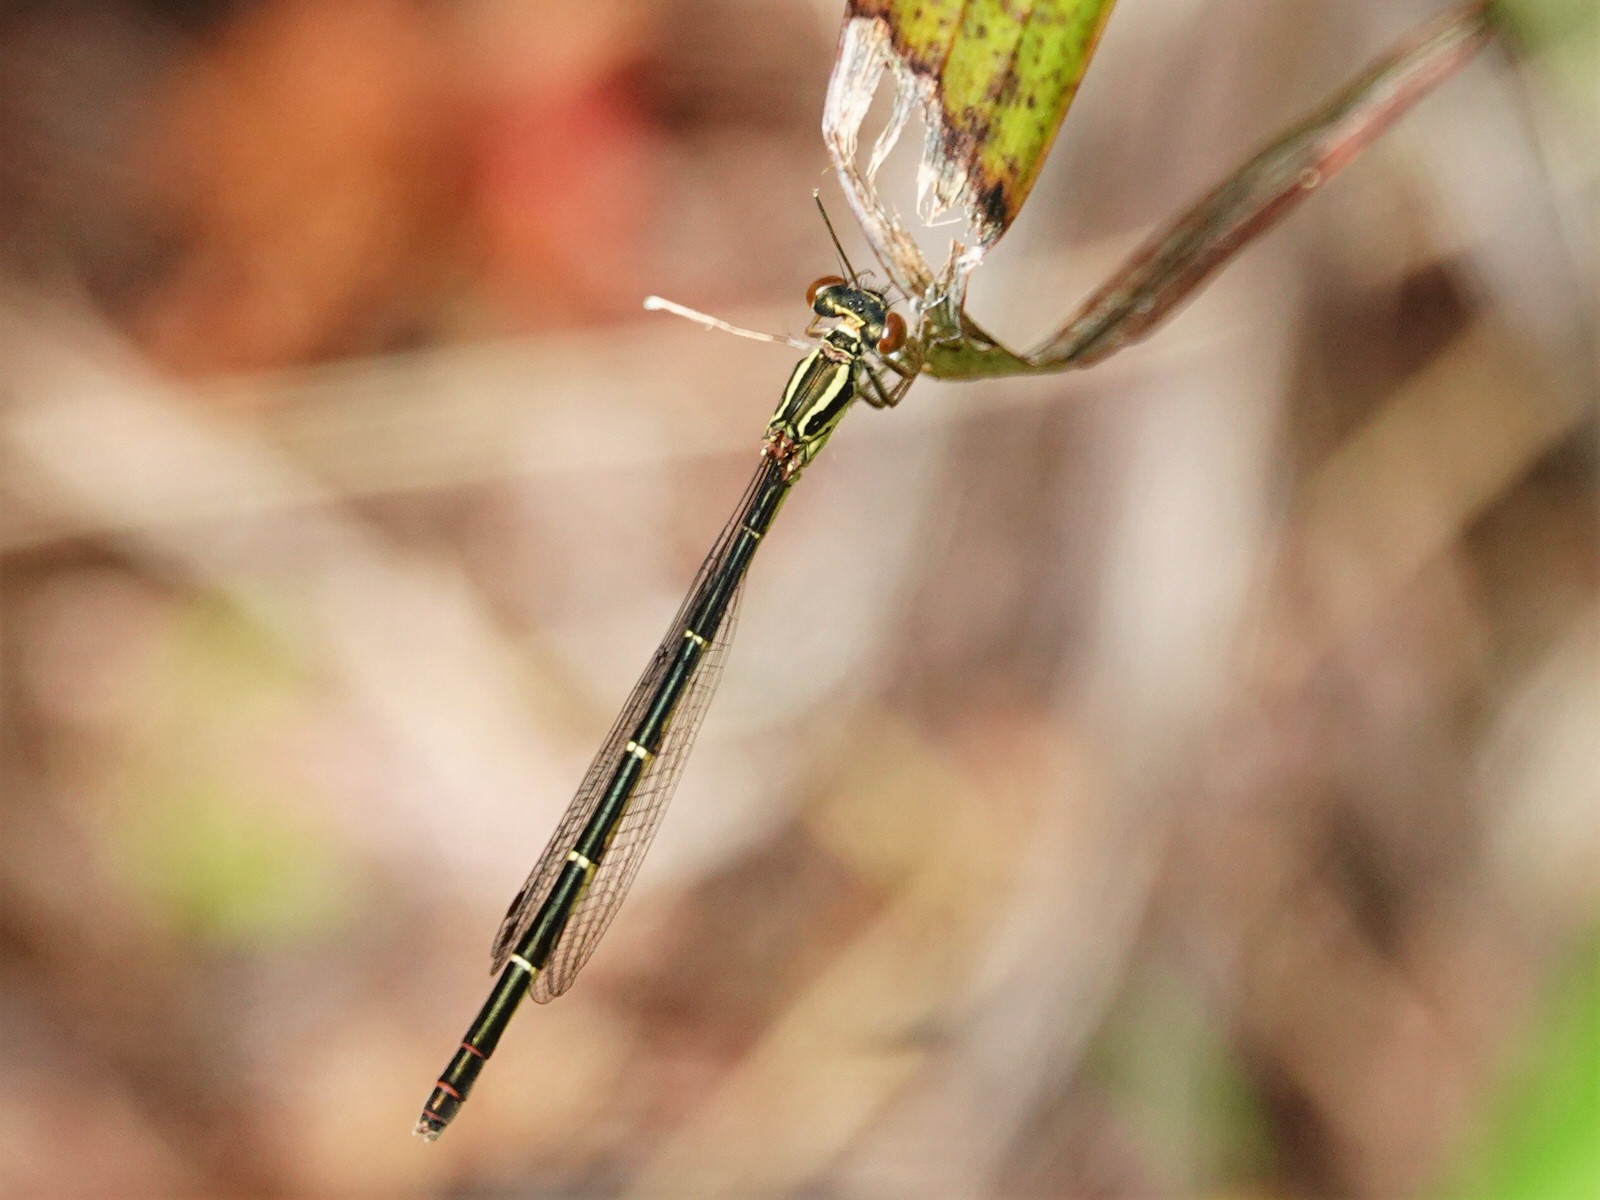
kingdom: Animalia
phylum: Arthropoda
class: Insecta
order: Odonata
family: Coenagrionidae
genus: Xanthocnemis
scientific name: Xanthocnemis zealandica
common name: Common redcoat damselfly
